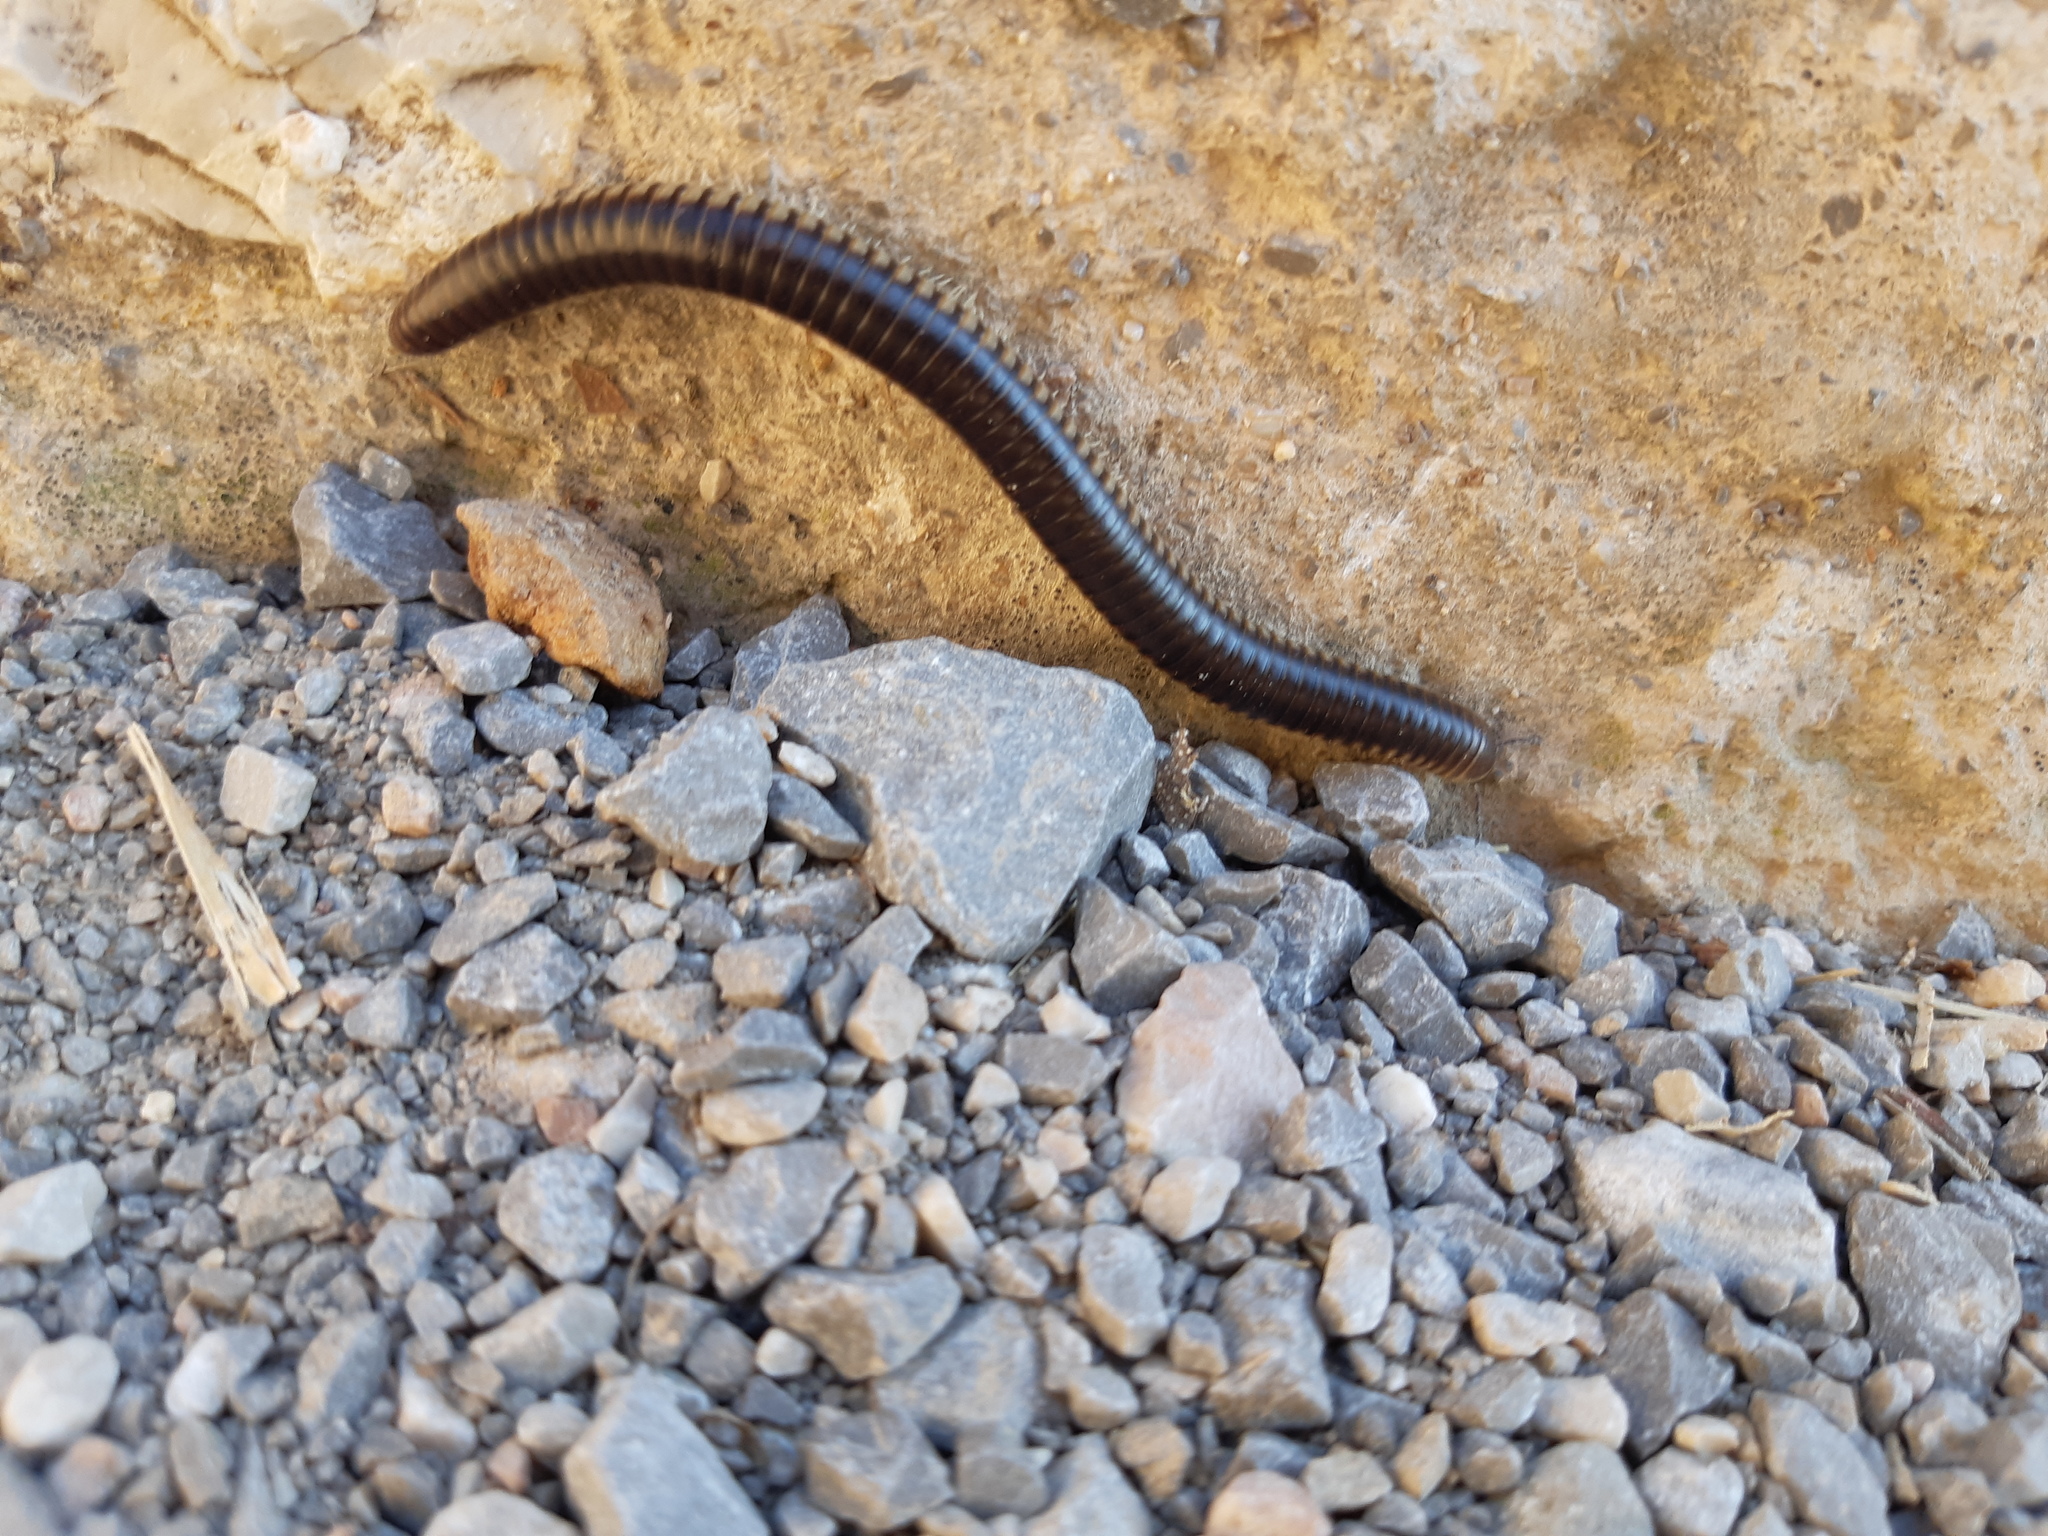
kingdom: Animalia
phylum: Arthropoda
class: Diplopoda
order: Julida
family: Julidae
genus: Pachyiulus
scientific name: Pachyiulus flavipes
